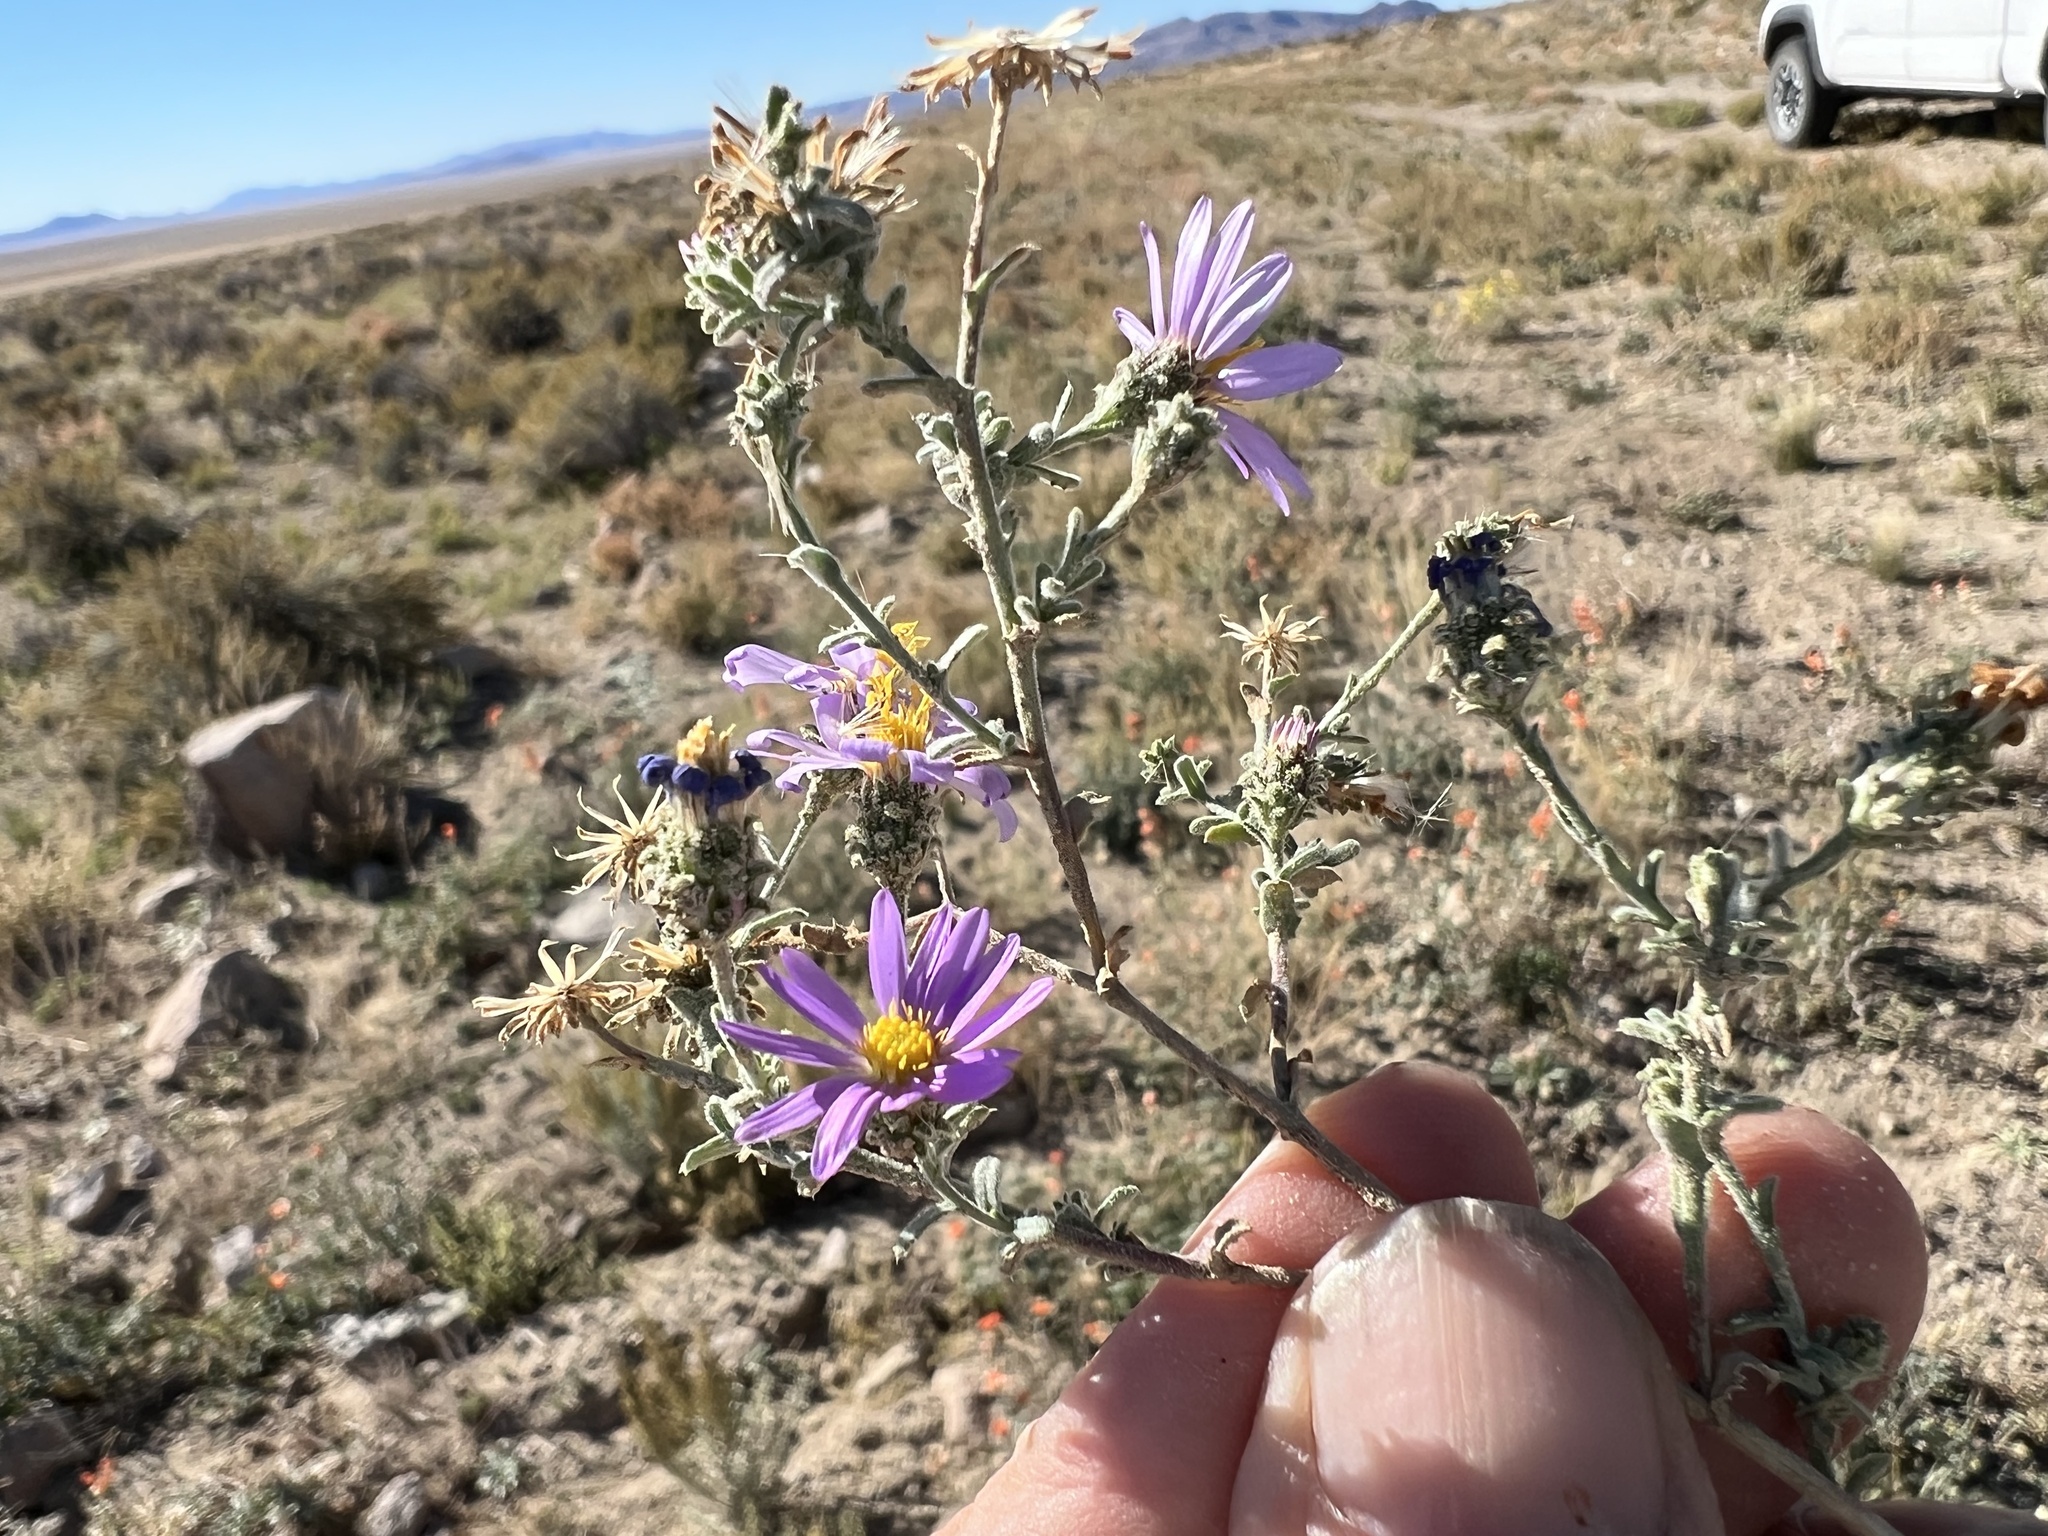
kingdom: Plantae
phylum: Tracheophyta
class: Magnoliopsida
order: Asterales
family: Asteraceae
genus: Dieteria
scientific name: Dieteria canescens
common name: Hoary-aster
